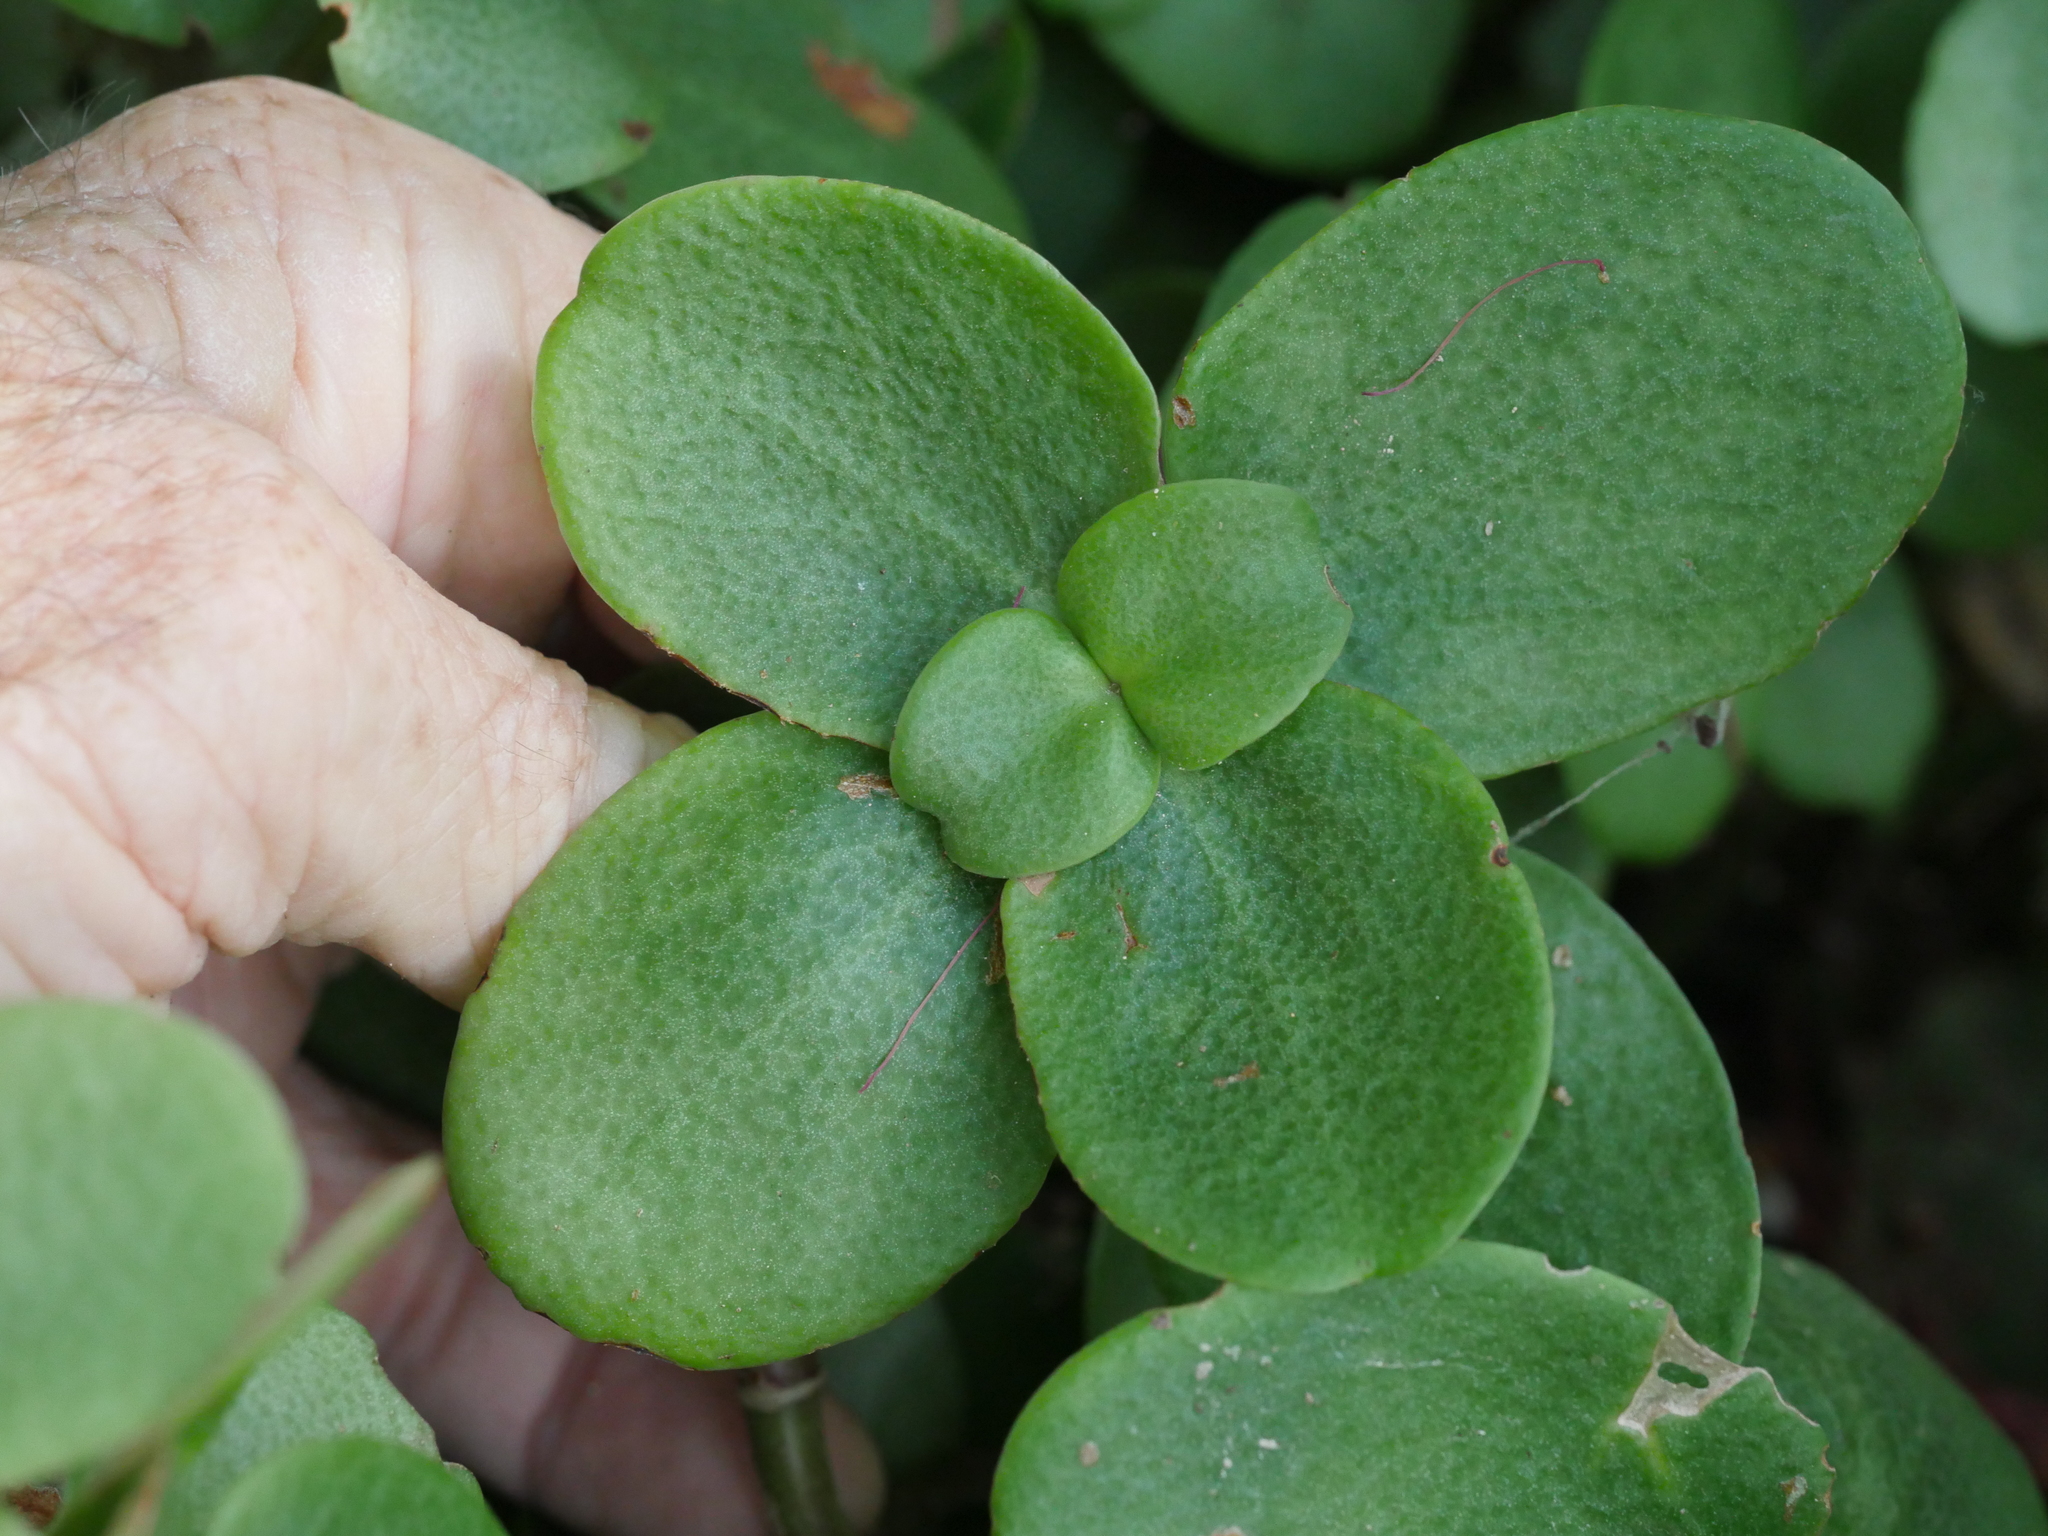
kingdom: Plantae
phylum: Tracheophyta
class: Magnoliopsida
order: Saxifragales
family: Crassulaceae
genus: Crassula
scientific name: Crassula multicava
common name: Cape province pygmyweed
